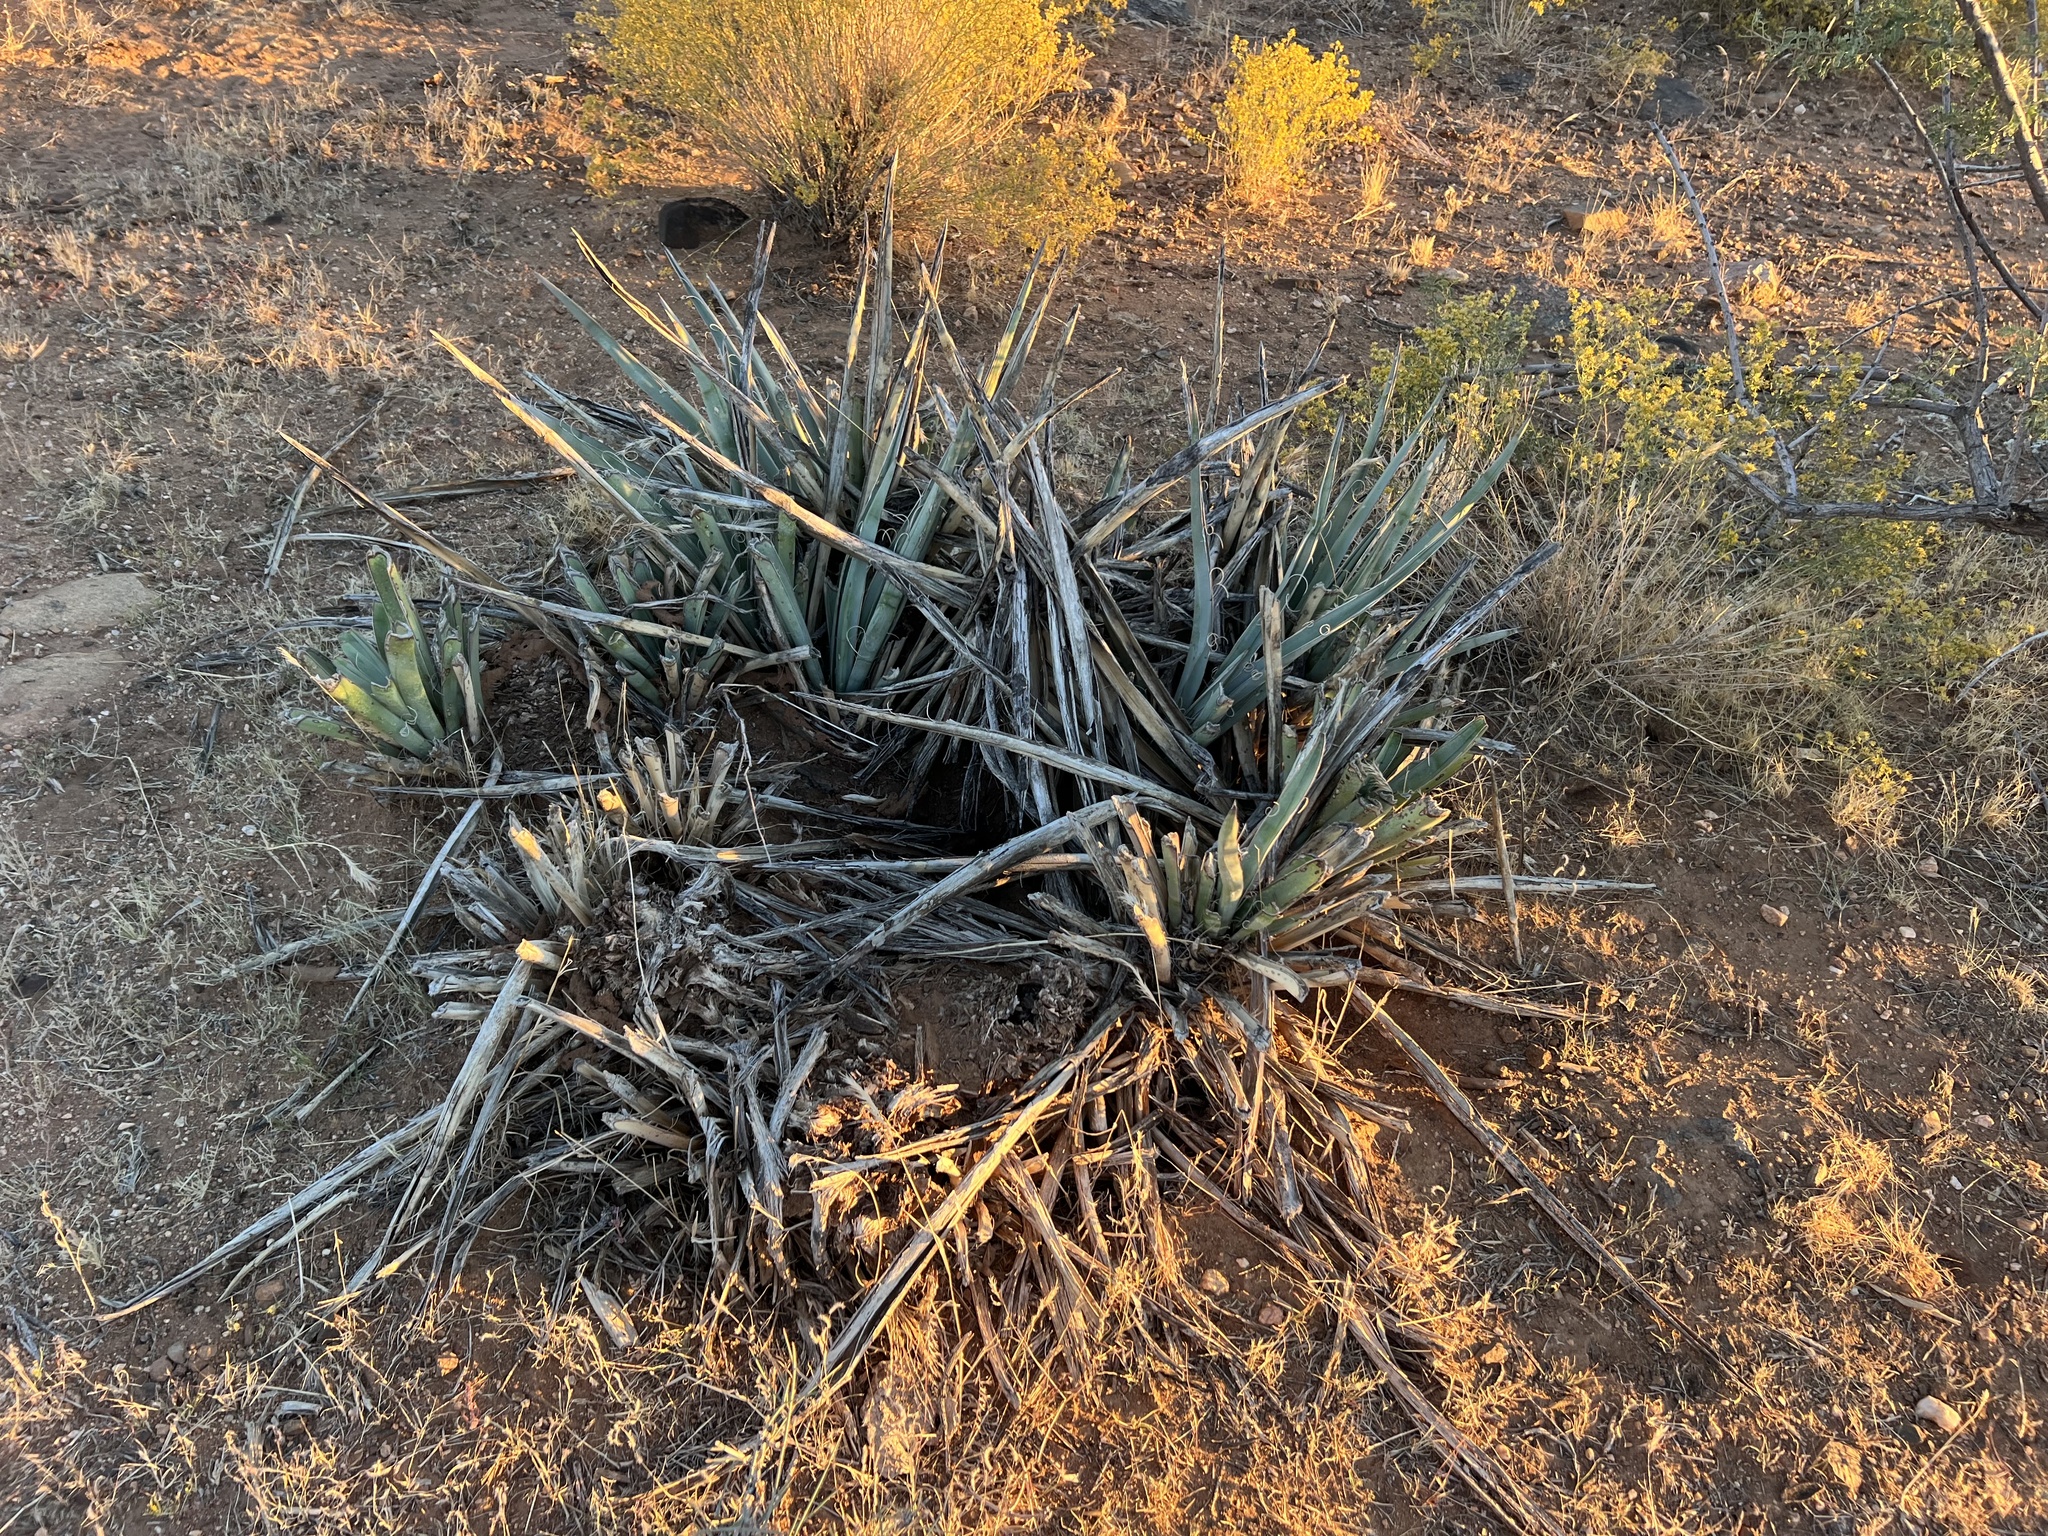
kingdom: Plantae
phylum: Tracheophyta
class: Liliopsida
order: Asparagales
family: Asparagaceae
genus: Yucca
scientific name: Yucca baccata
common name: Banana yucca
